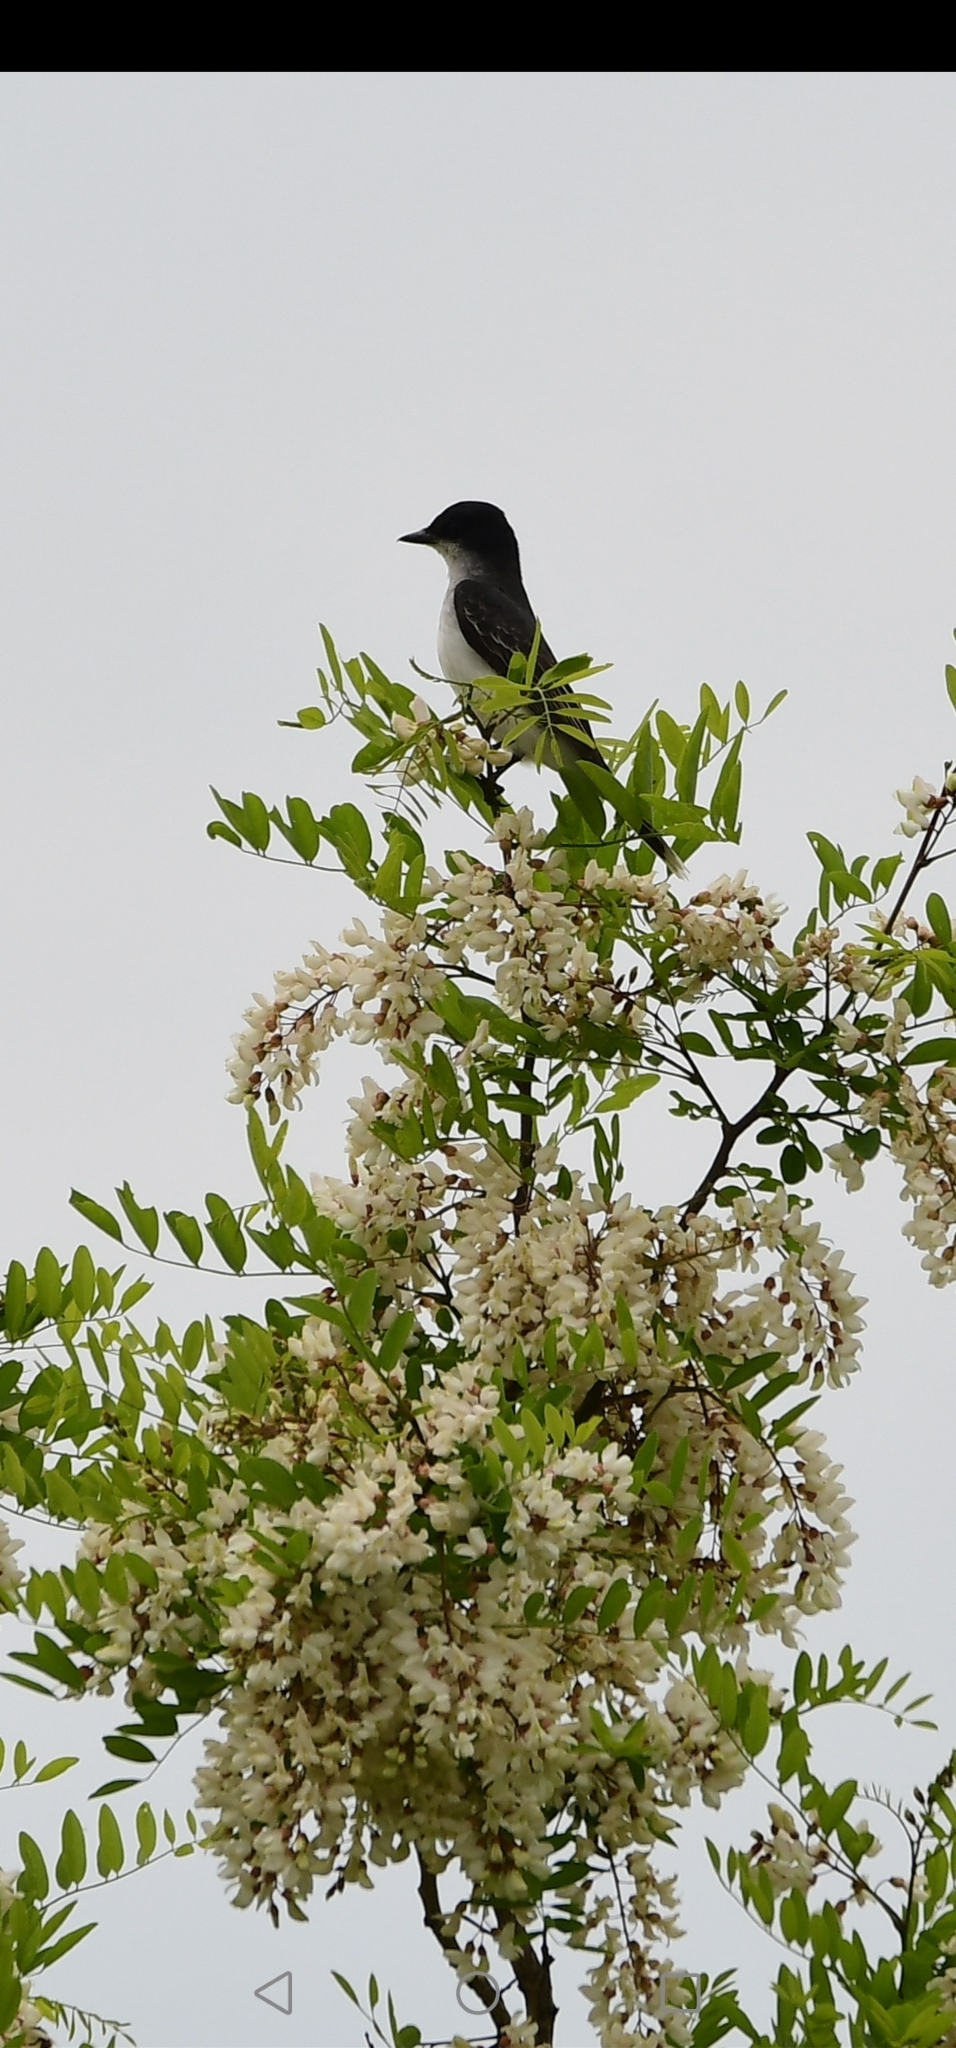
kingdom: Animalia
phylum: Chordata
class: Aves
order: Passeriformes
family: Tyrannidae
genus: Tyrannus
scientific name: Tyrannus tyrannus
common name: Eastern kingbird
